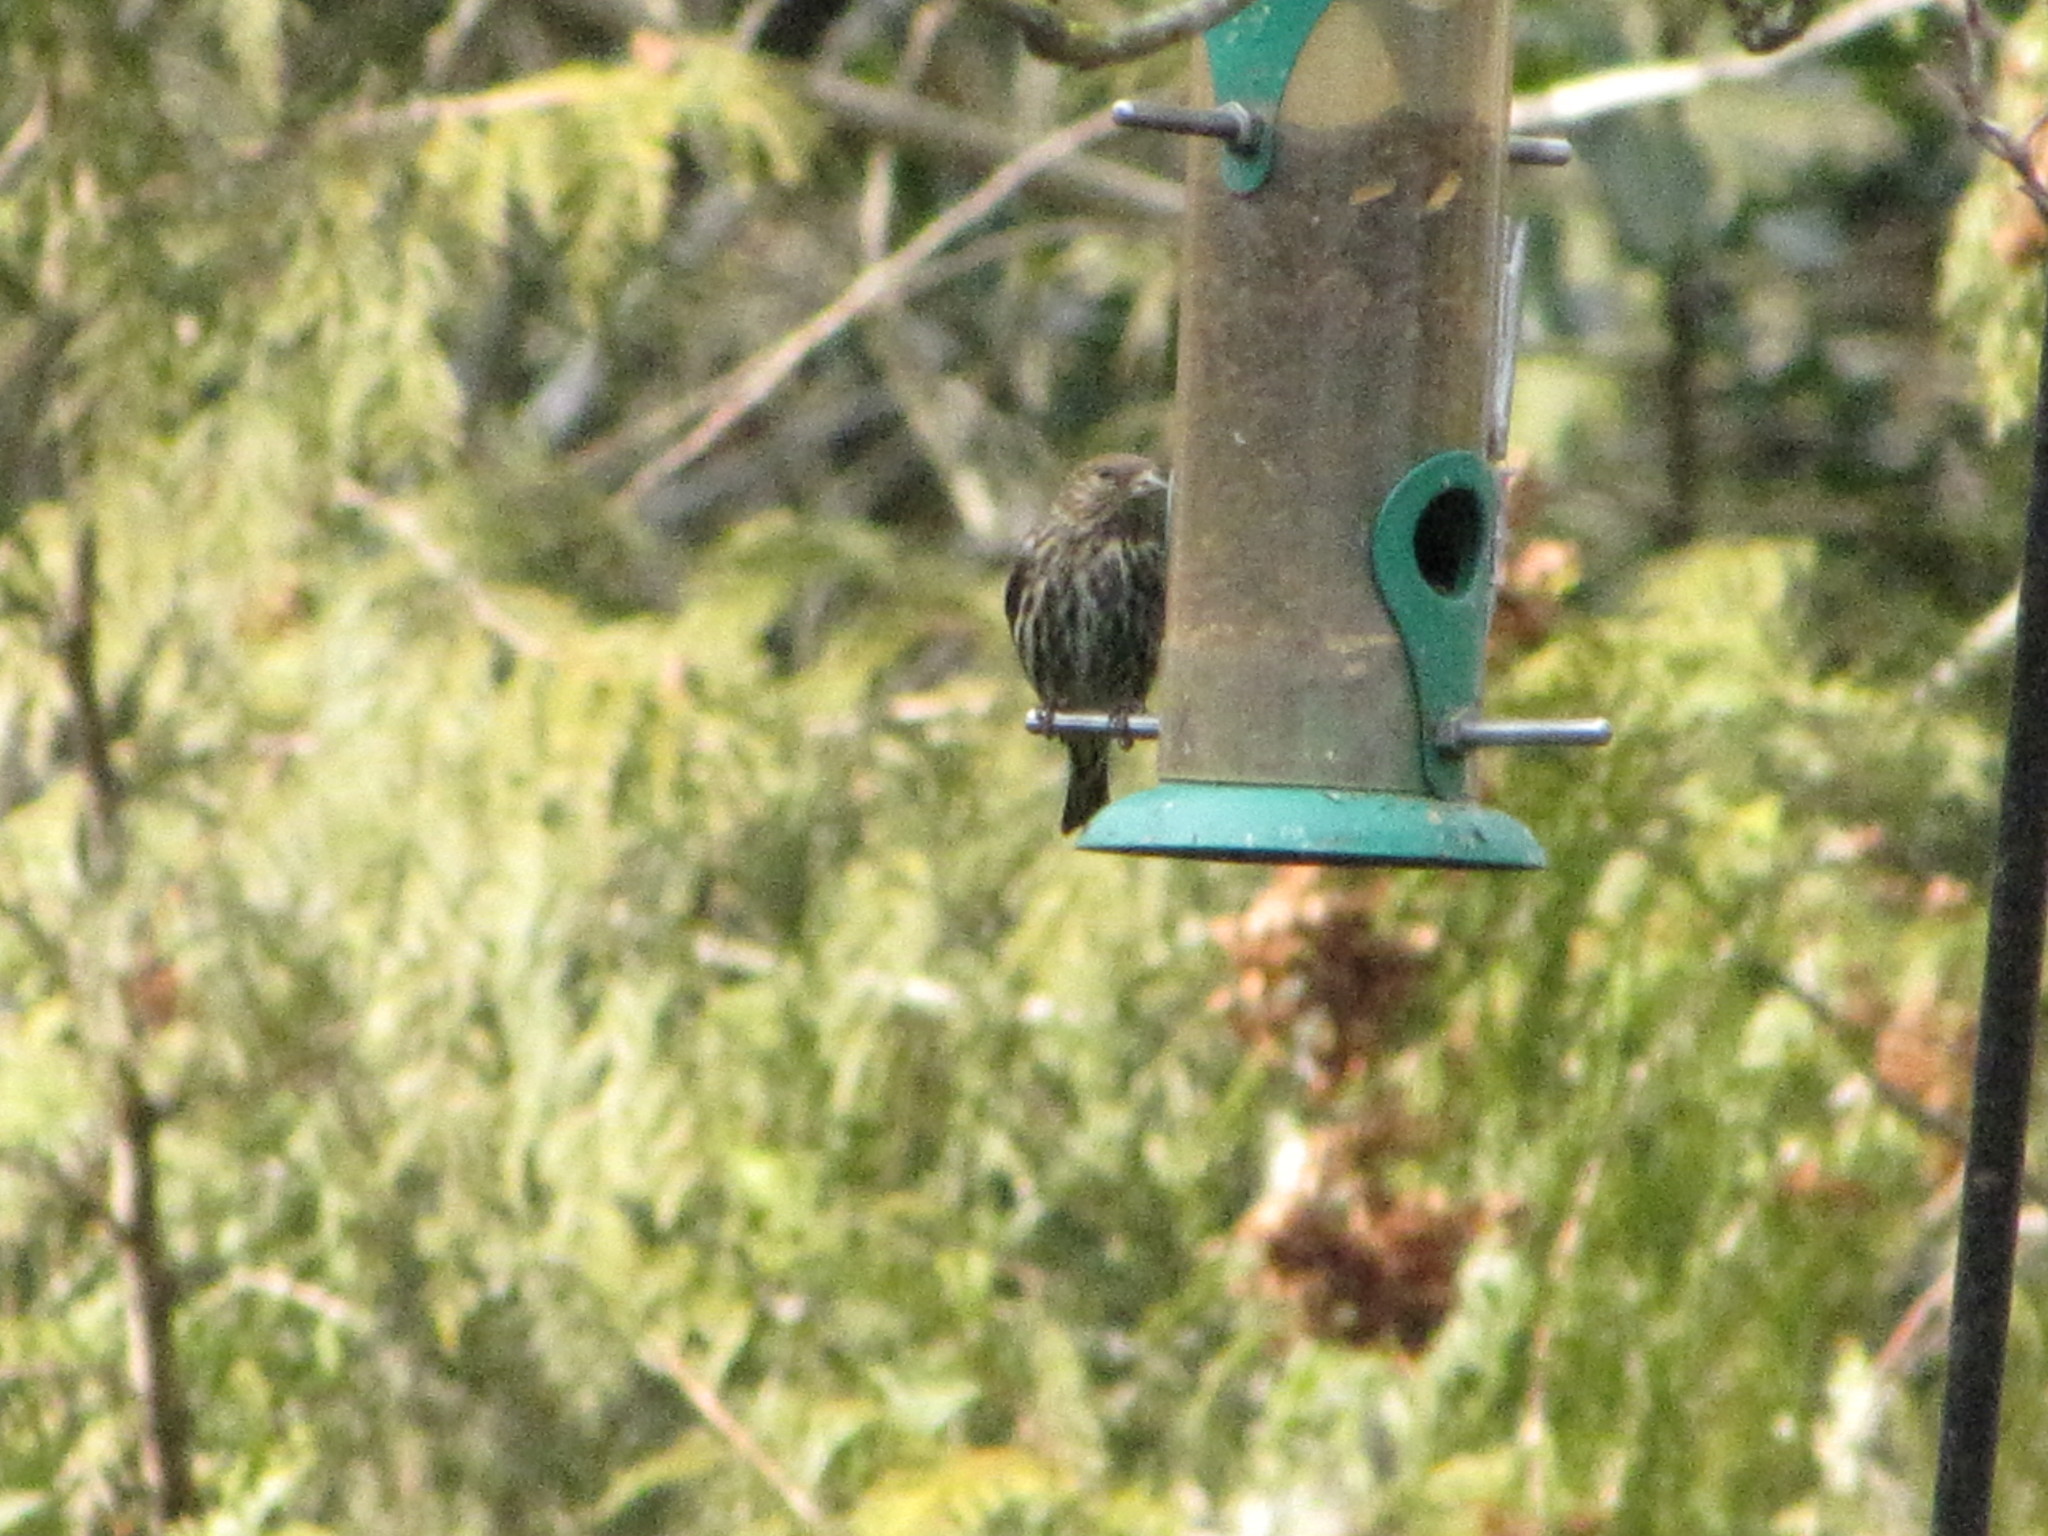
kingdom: Animalia
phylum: Chordata
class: Aves
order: Passeriformes
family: Fringillidae
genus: Spinus
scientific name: Spinus pinus
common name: Pine siskin
